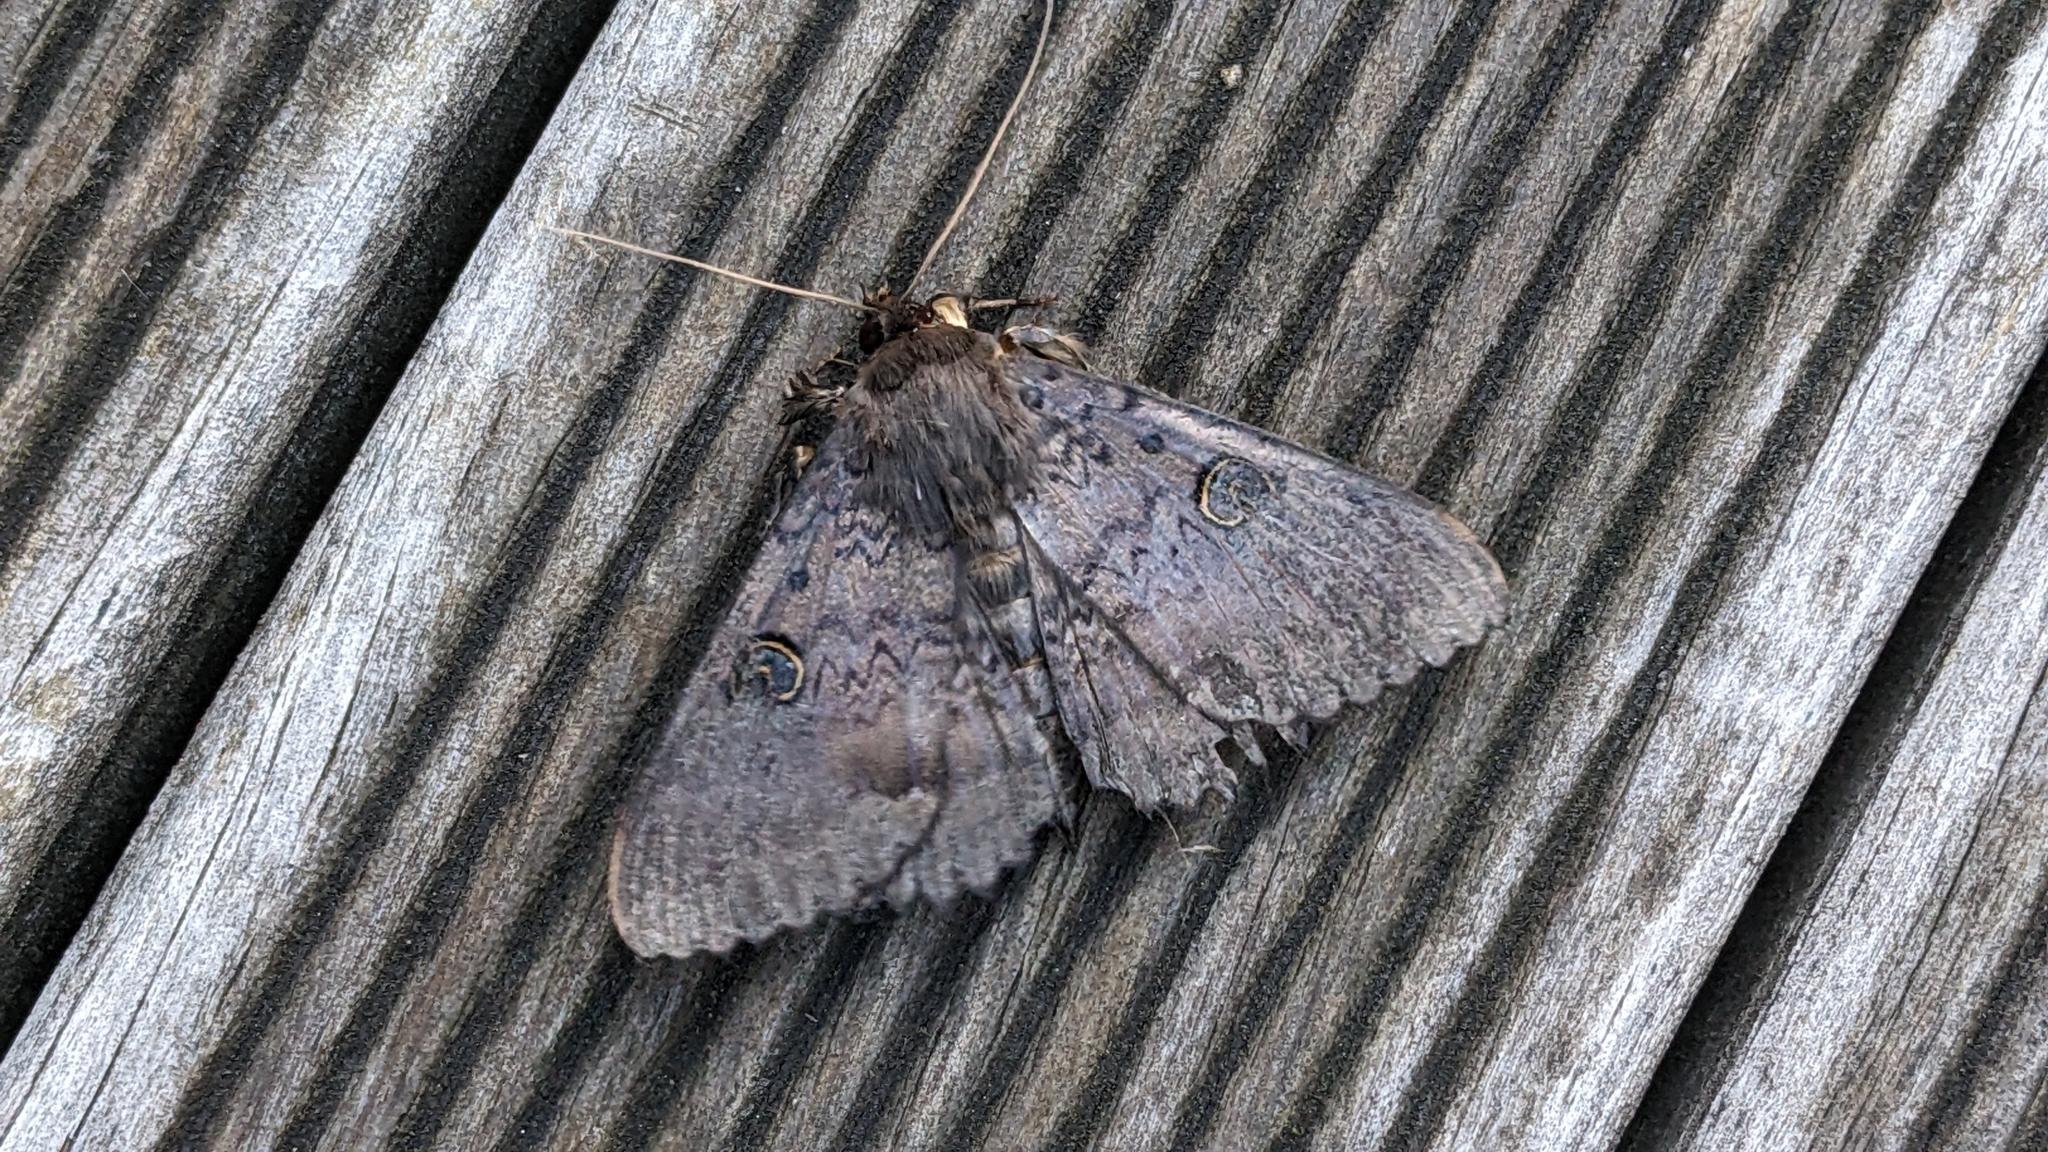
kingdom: Animalia
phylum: Arthropoda
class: Insecta
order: Lepidoptera
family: Erebidae
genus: Dasypodia
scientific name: Dasypodia cymatodes
